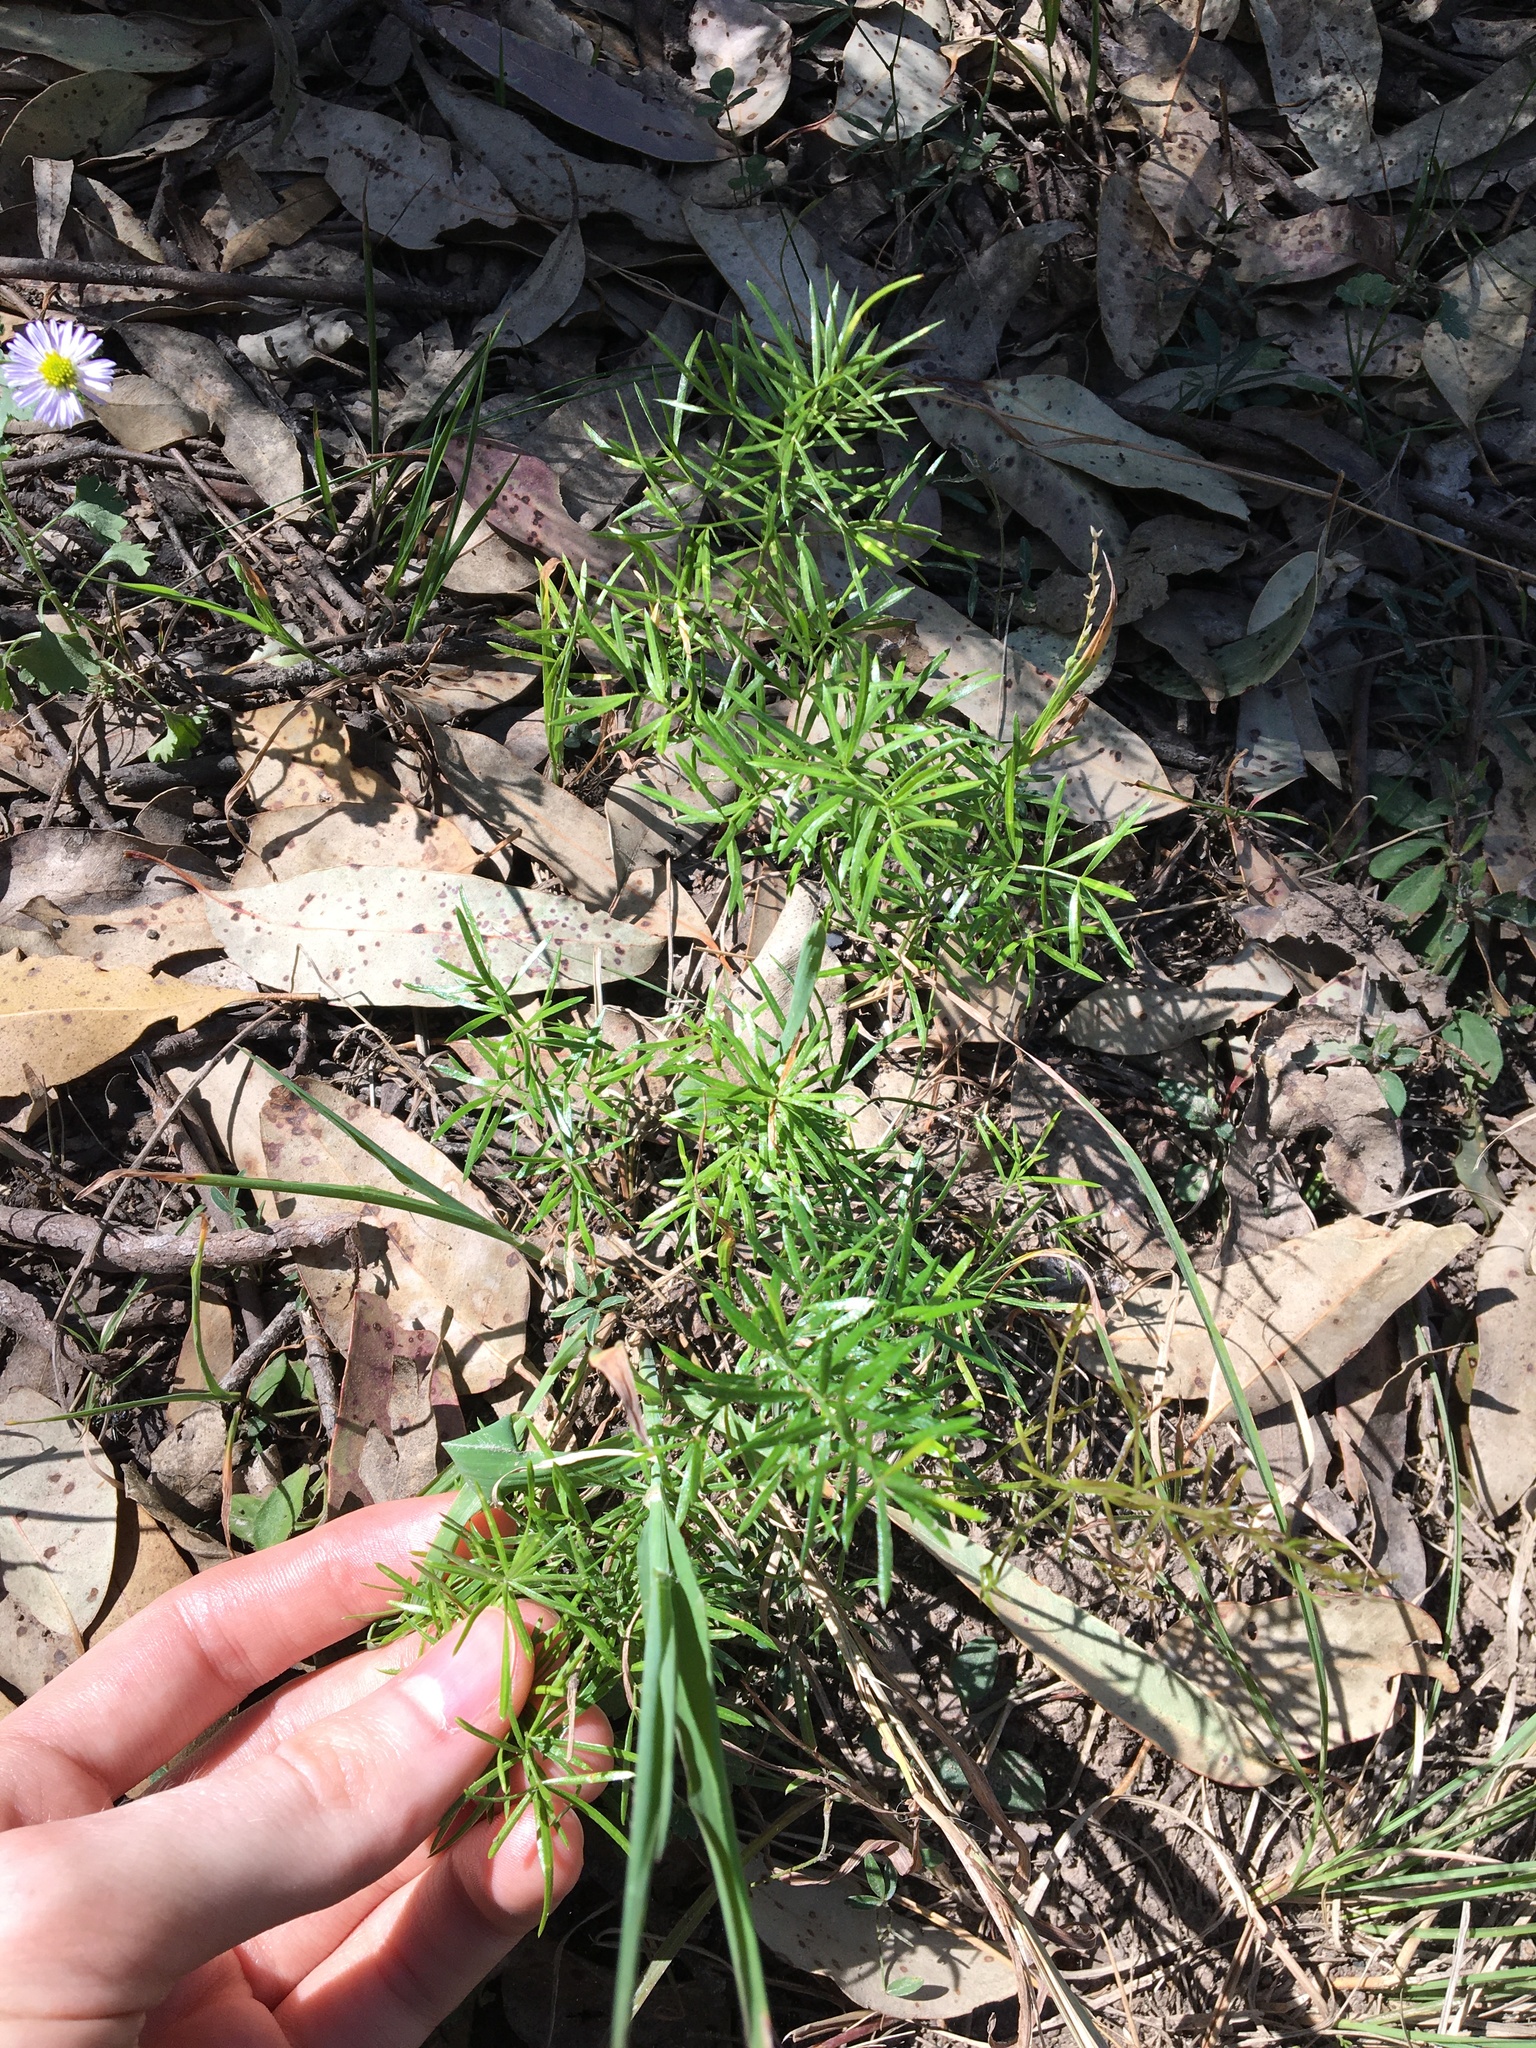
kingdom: Plantae
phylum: Tracheophyta
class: Liliopsida
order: Asparagales
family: Asparagaceae
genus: Asparagus
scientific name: Asparagus aethiopicus
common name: Sprenger's asparagus fern
